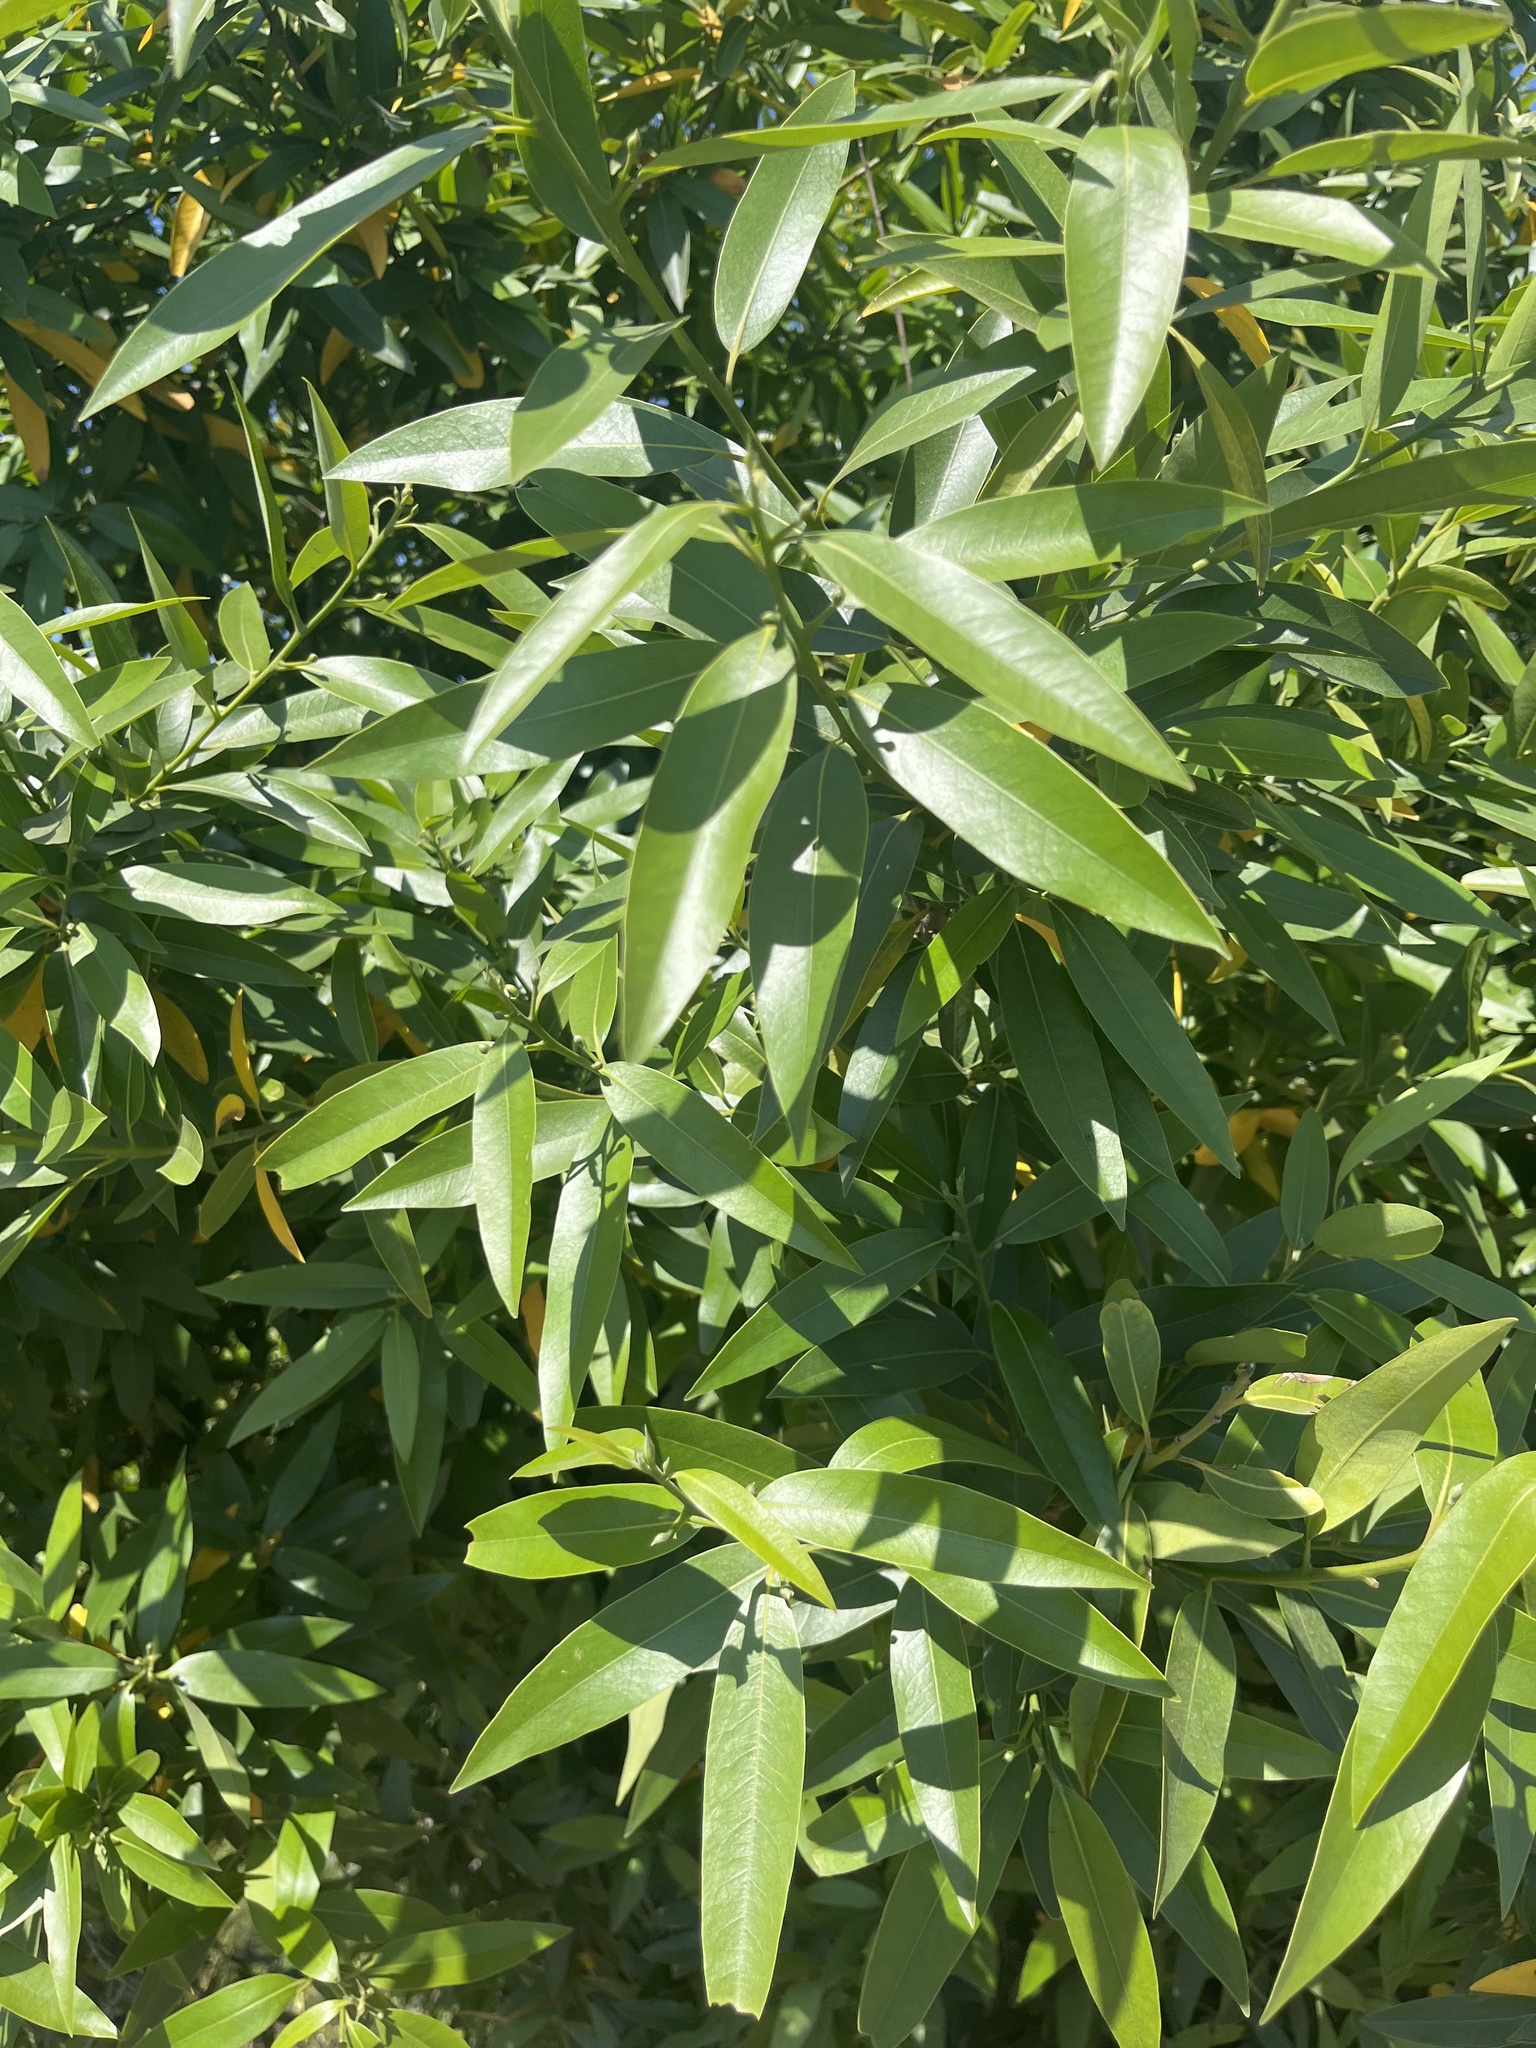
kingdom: Plantae
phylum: Tracheophyta
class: Magnoliopsida
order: Laurales
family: Lauraceae
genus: Umbellularia
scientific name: Umbellularia californica
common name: California bay
